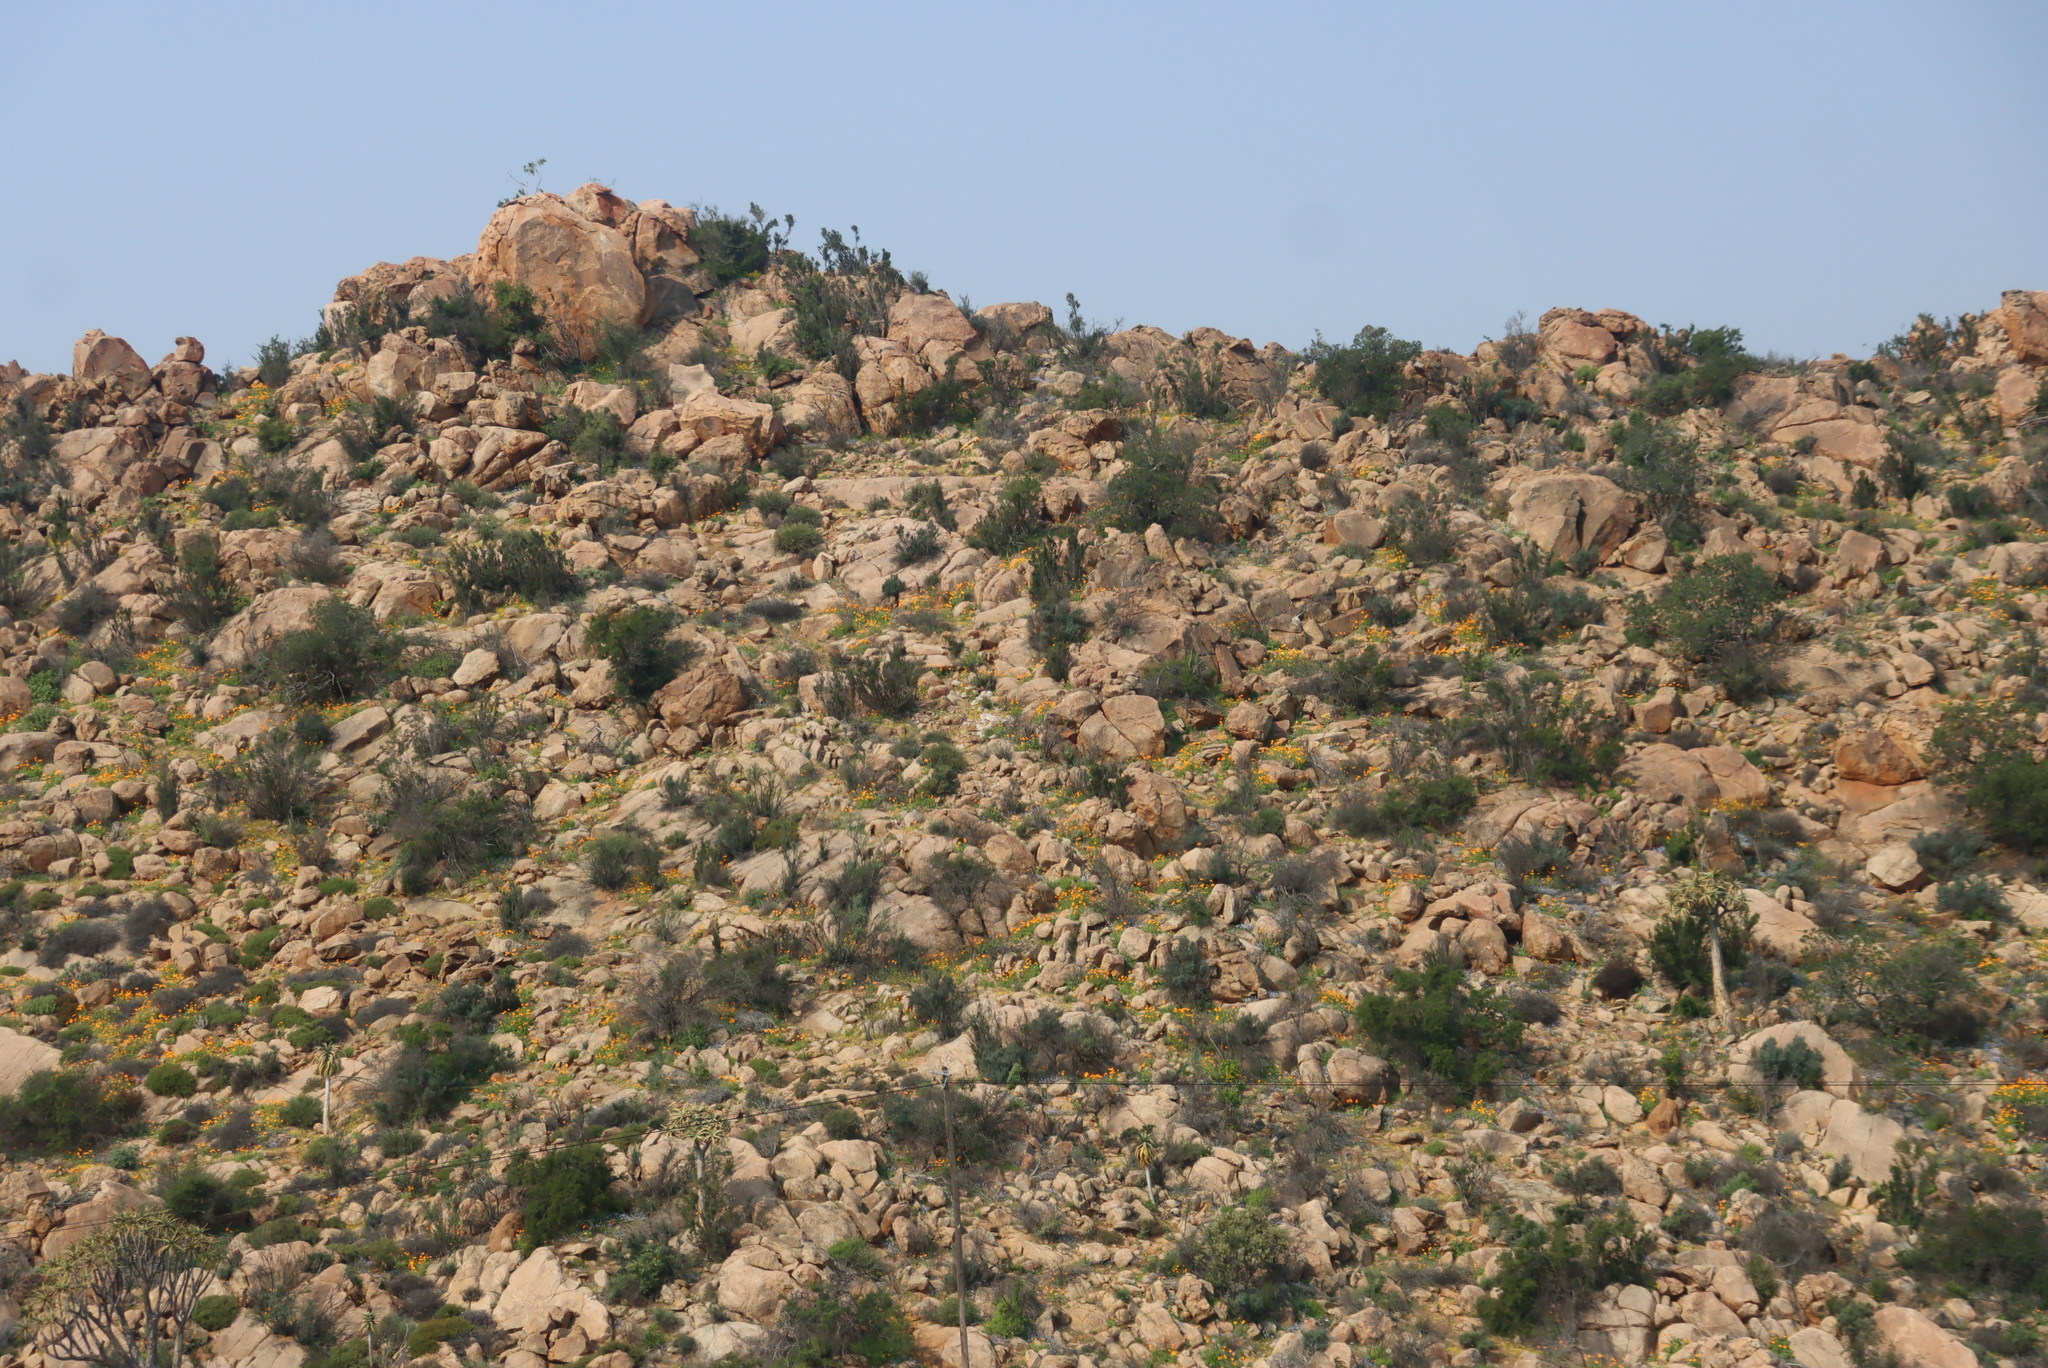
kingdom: Plantae
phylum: Tracheophyta
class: Liliopsida
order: Asparagales
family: Asphodelaceae
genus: Aloidendron
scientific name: Aloidendron dichotomum
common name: Quiver tree
